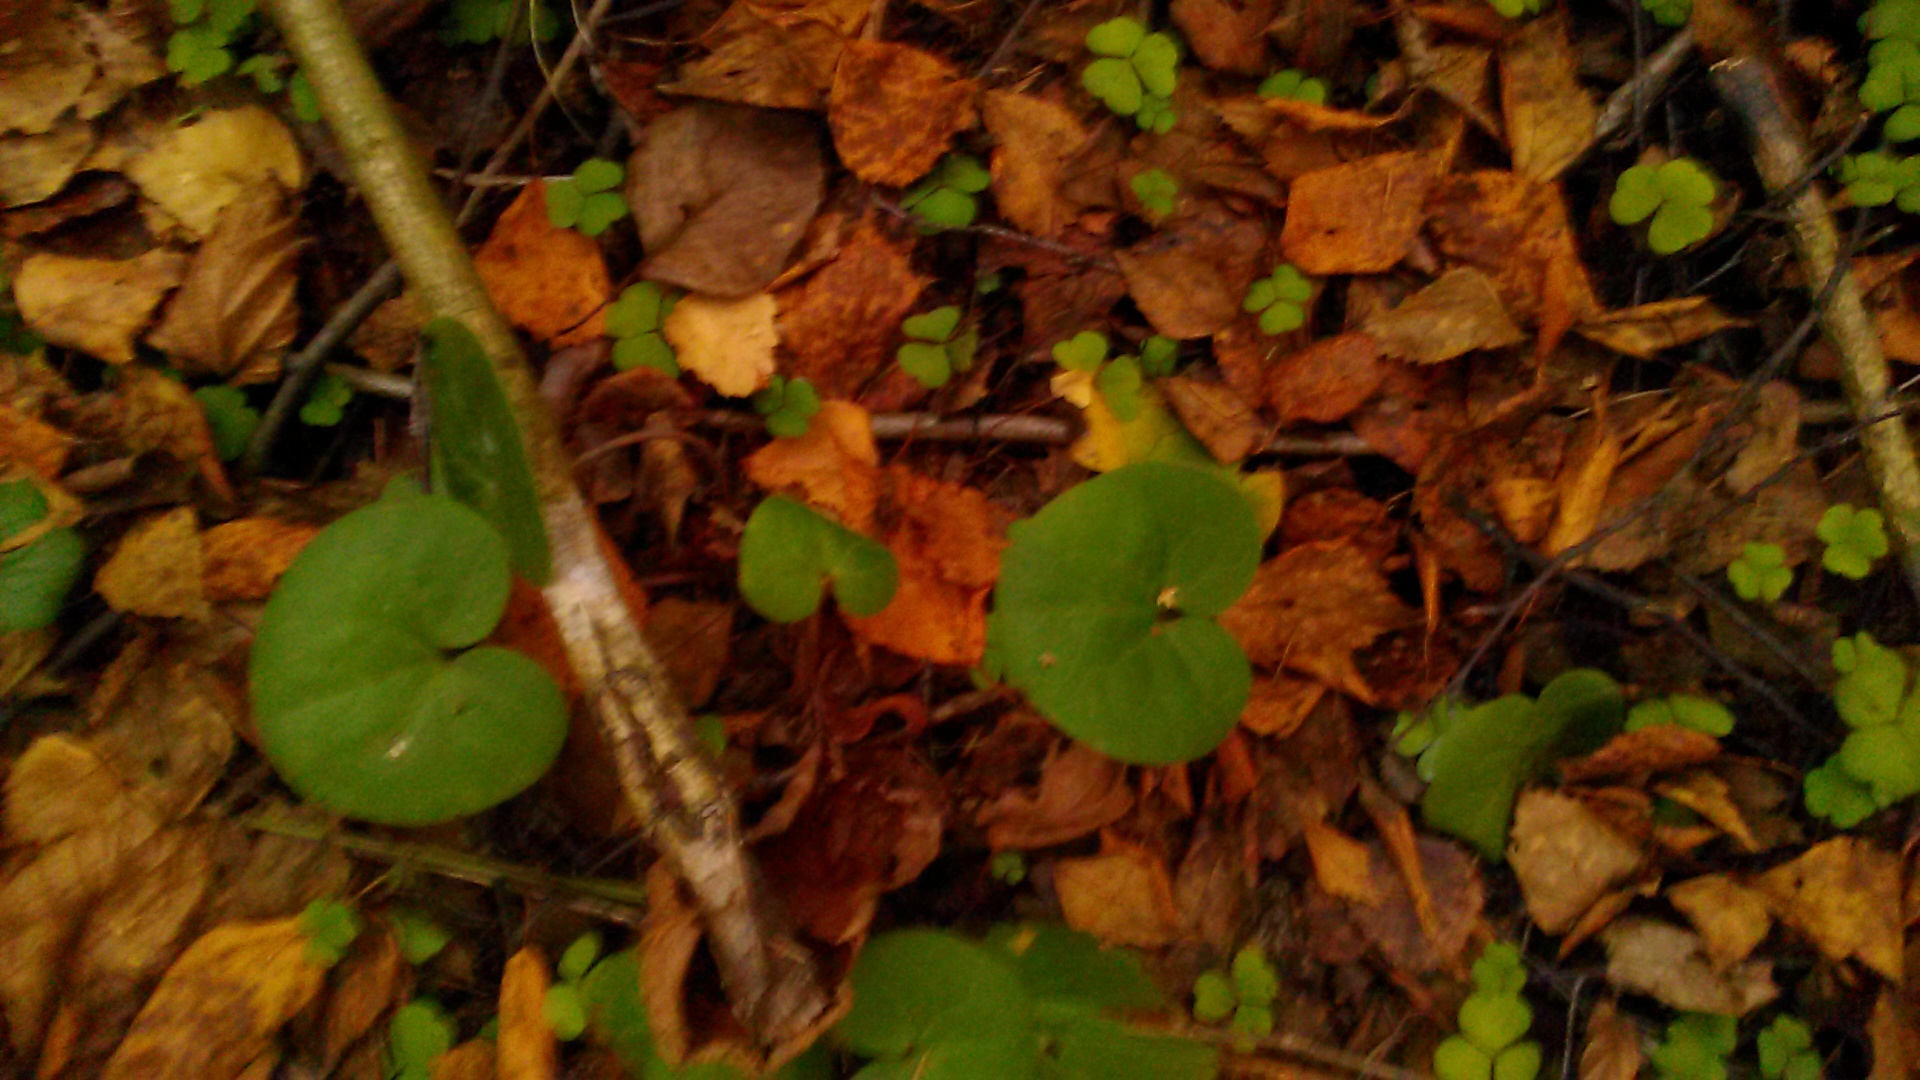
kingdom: Plantae
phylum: Tracheophyta
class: Magnoliopsida
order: Piperales
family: Aristolochiaceae
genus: Asarum
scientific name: Asarum europaeum
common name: Asarabacca
